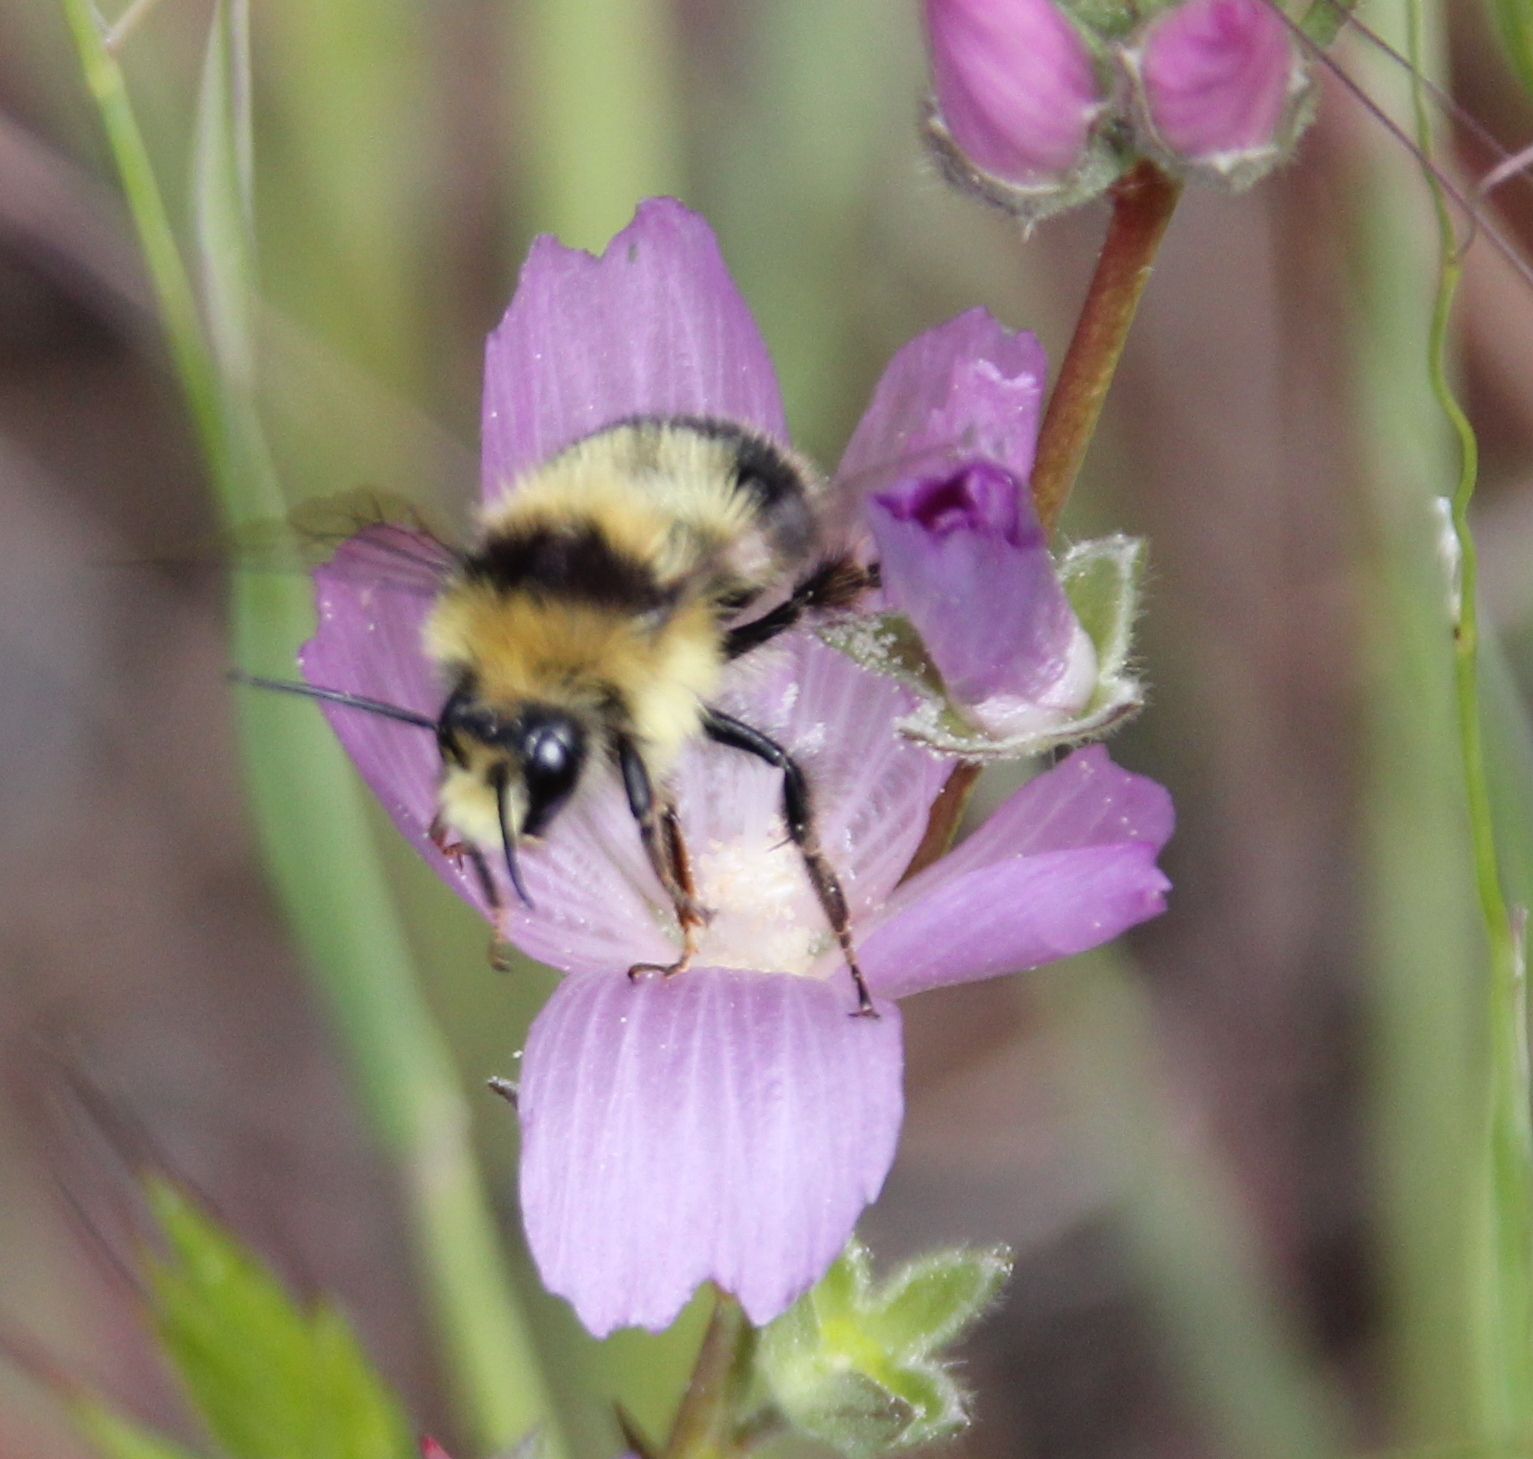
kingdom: Animalia
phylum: Arthropoda
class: Insecta
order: Hymenoptera
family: Apidae
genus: Bombus
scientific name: Bombus melanopygus
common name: Black tail bumble bee
